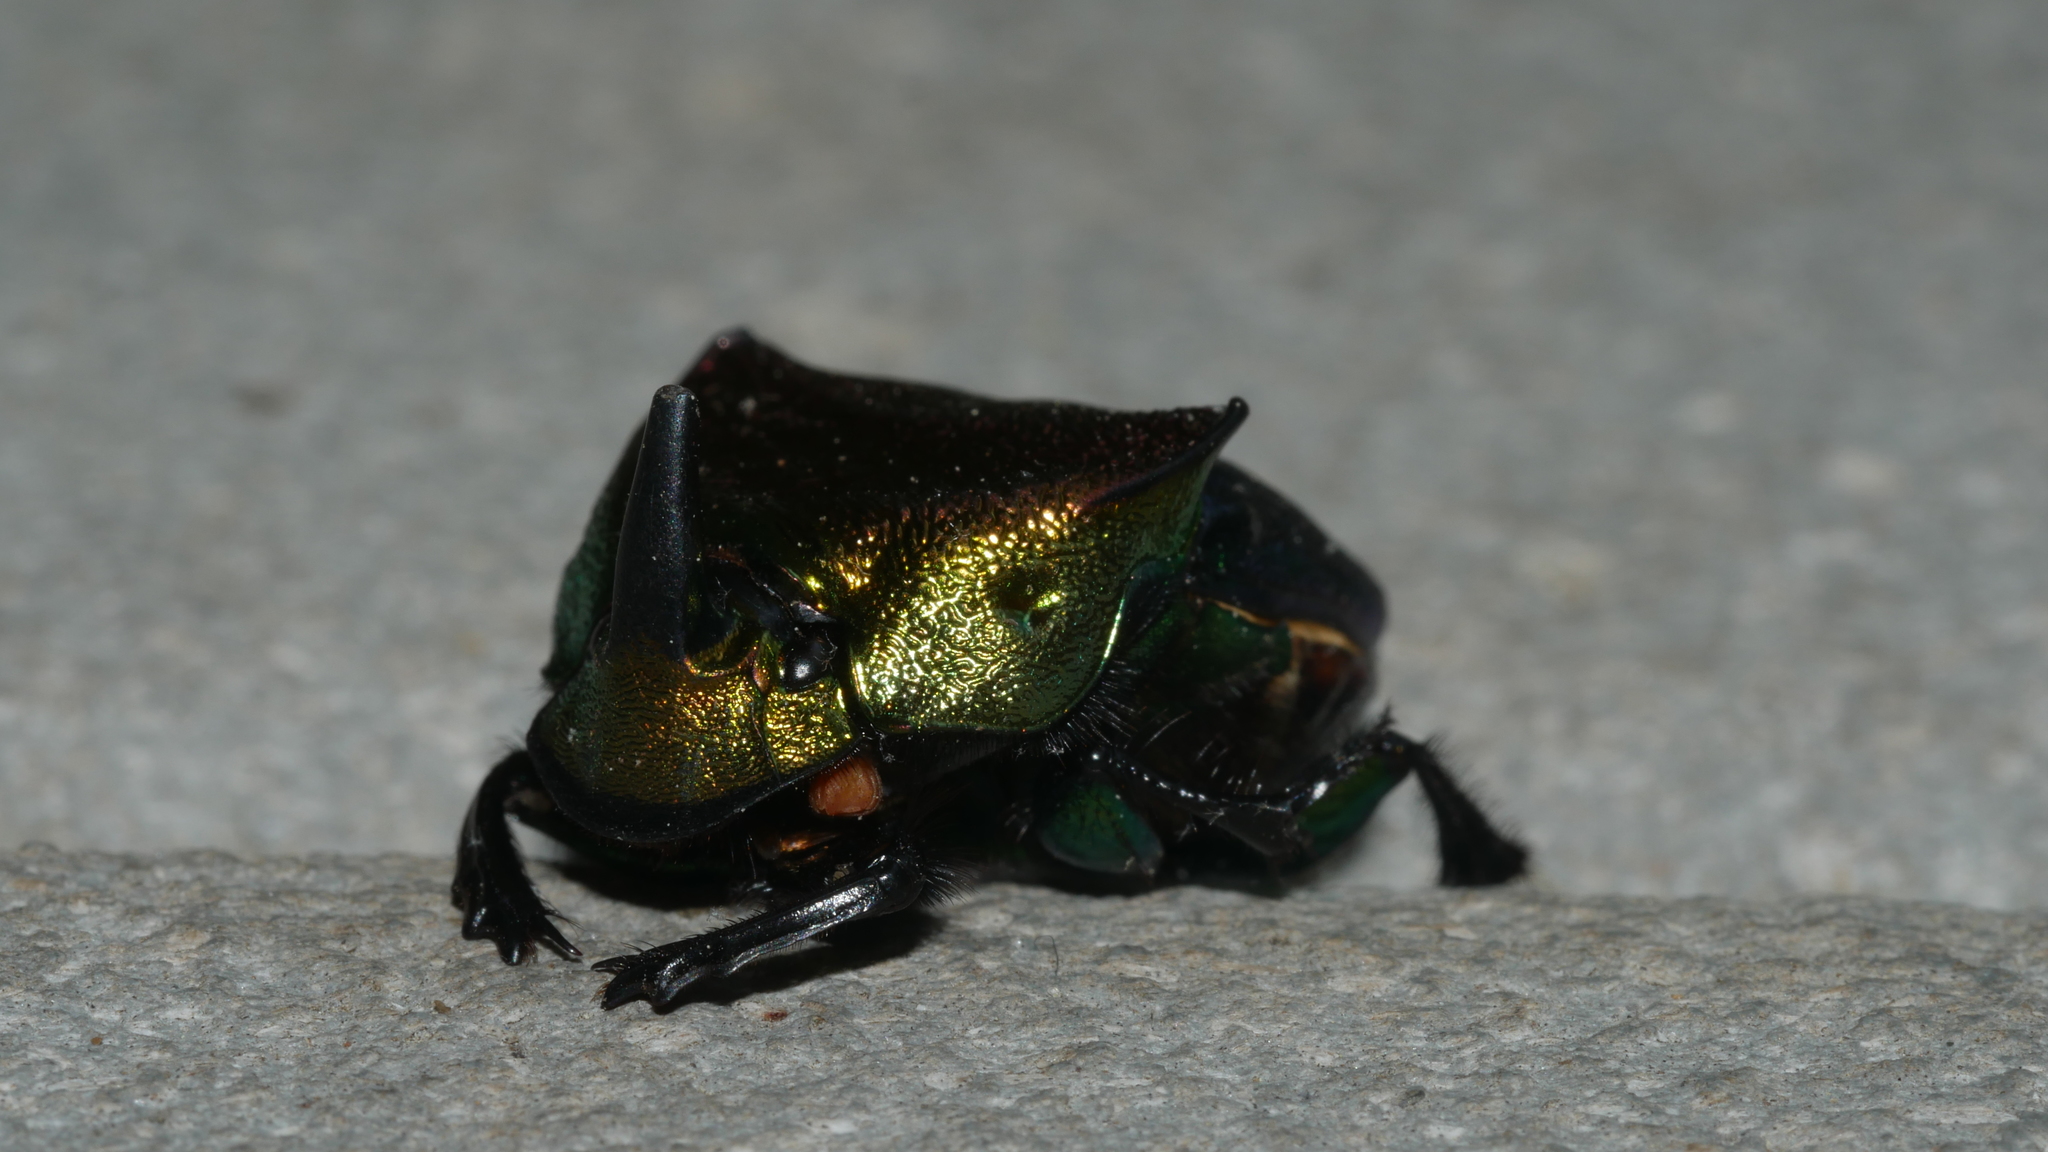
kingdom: Animalia
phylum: Arthropoda
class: Insecta
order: Coleoptera
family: Scarabaeidae
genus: Phanaeus
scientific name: Phanaeus vindex
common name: Rainbow scarab
